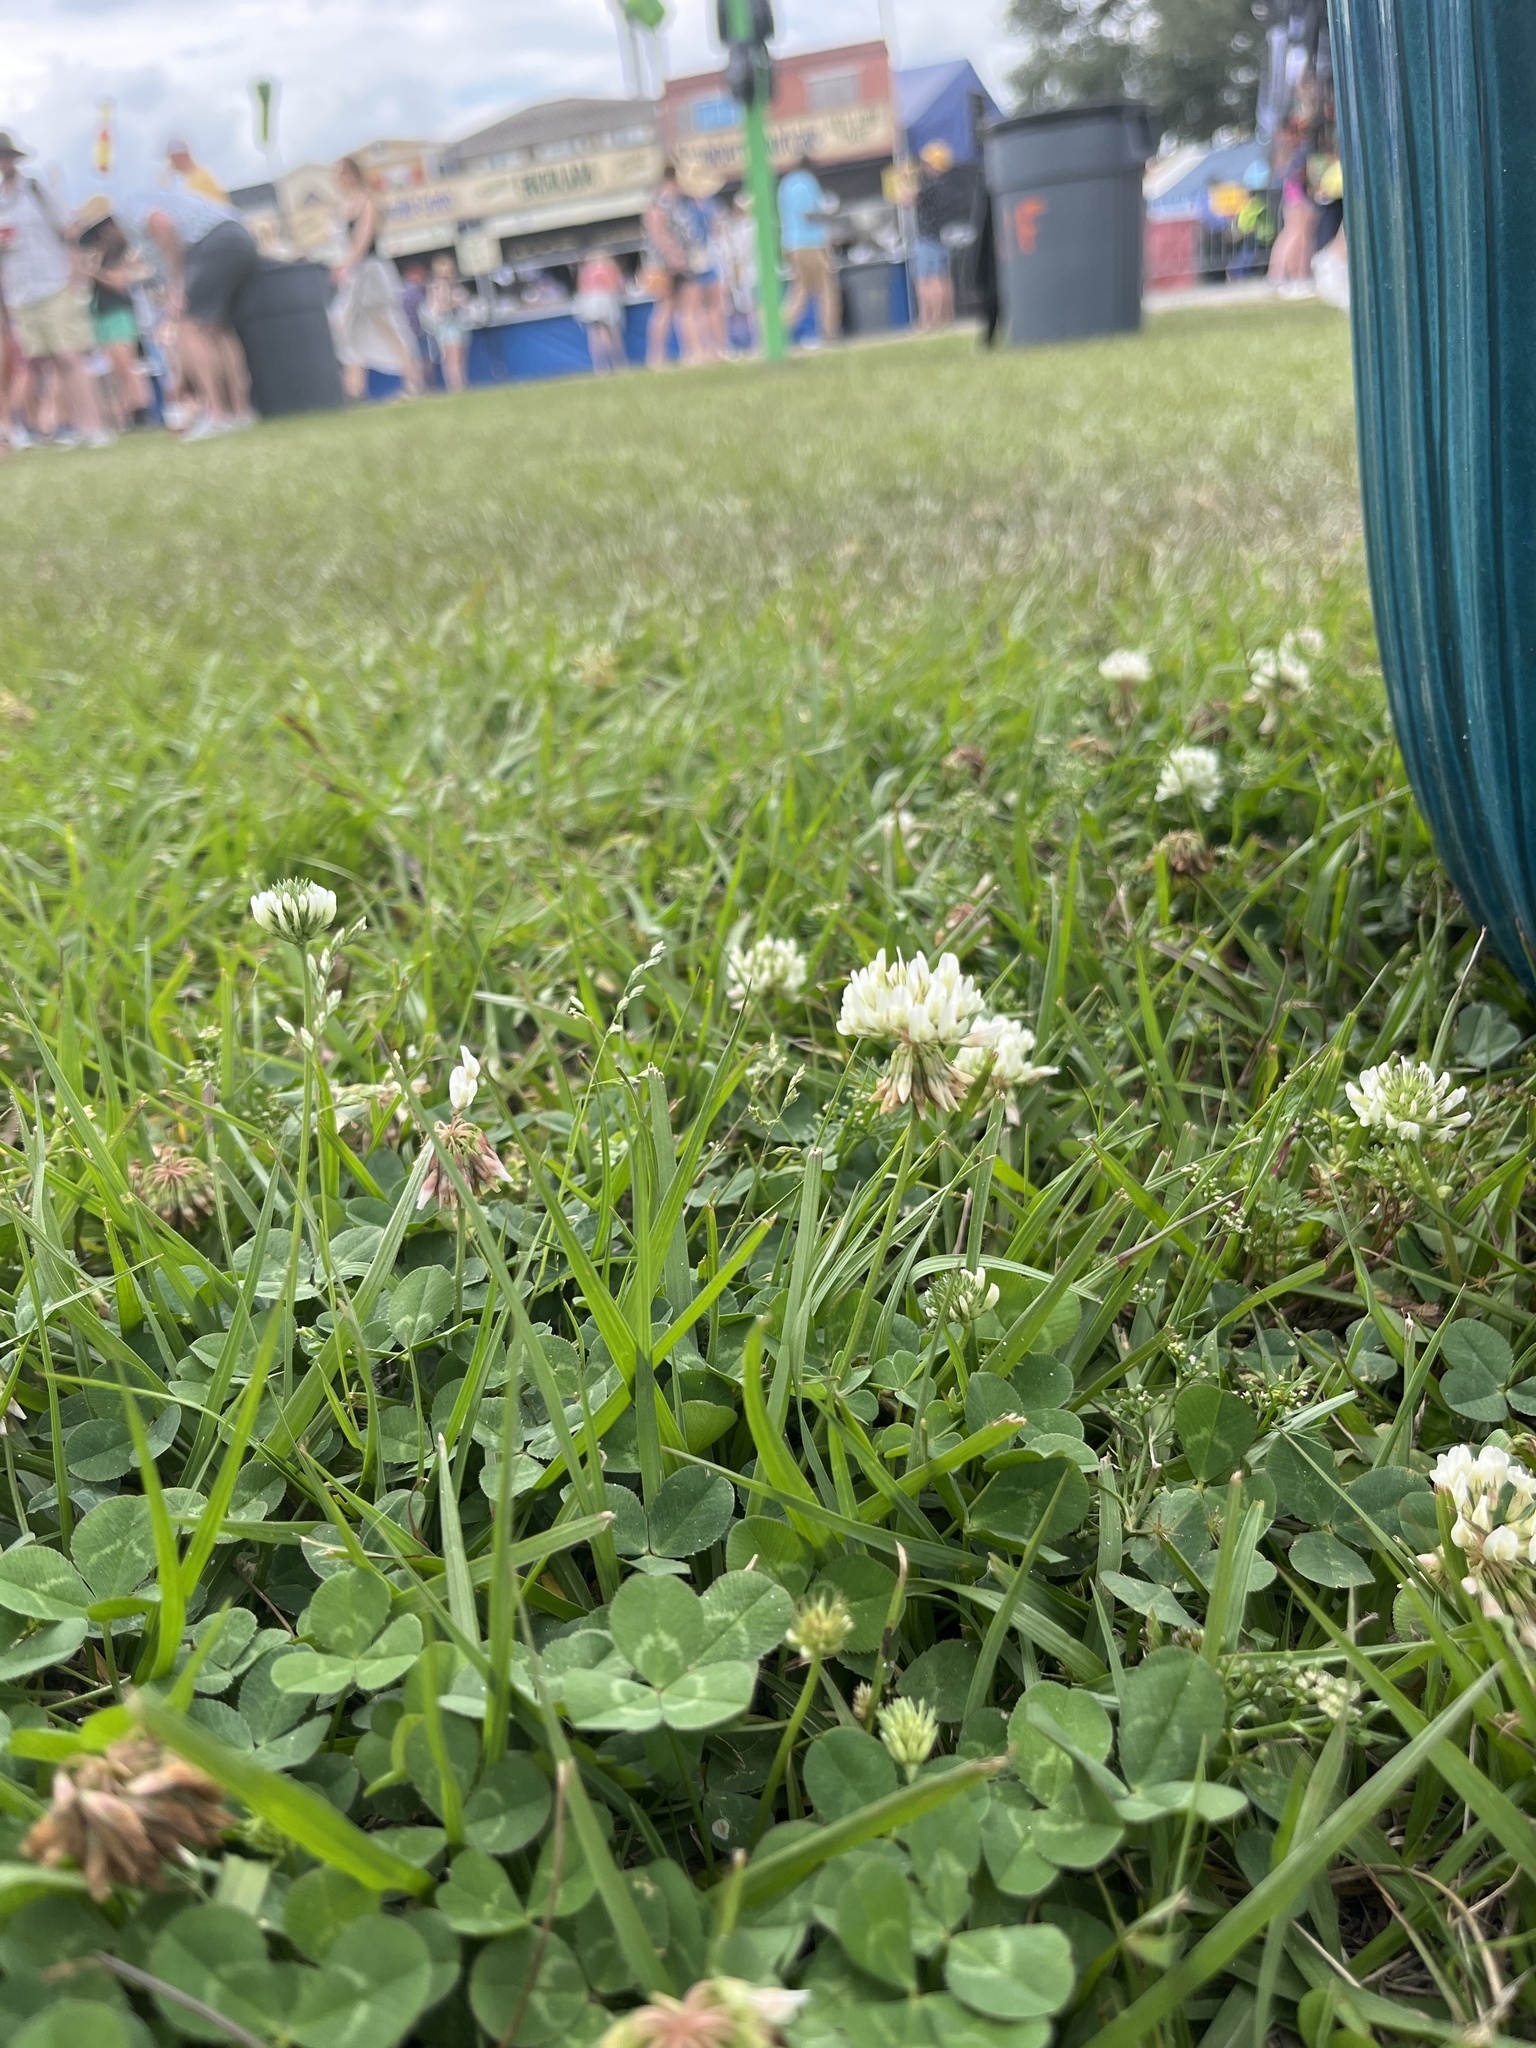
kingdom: Plantae
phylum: Tracheophyta
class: Magnoliopsida
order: Fabales
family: Fabaceae
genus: Trifolium
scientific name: Trifolium repens
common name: White clover
